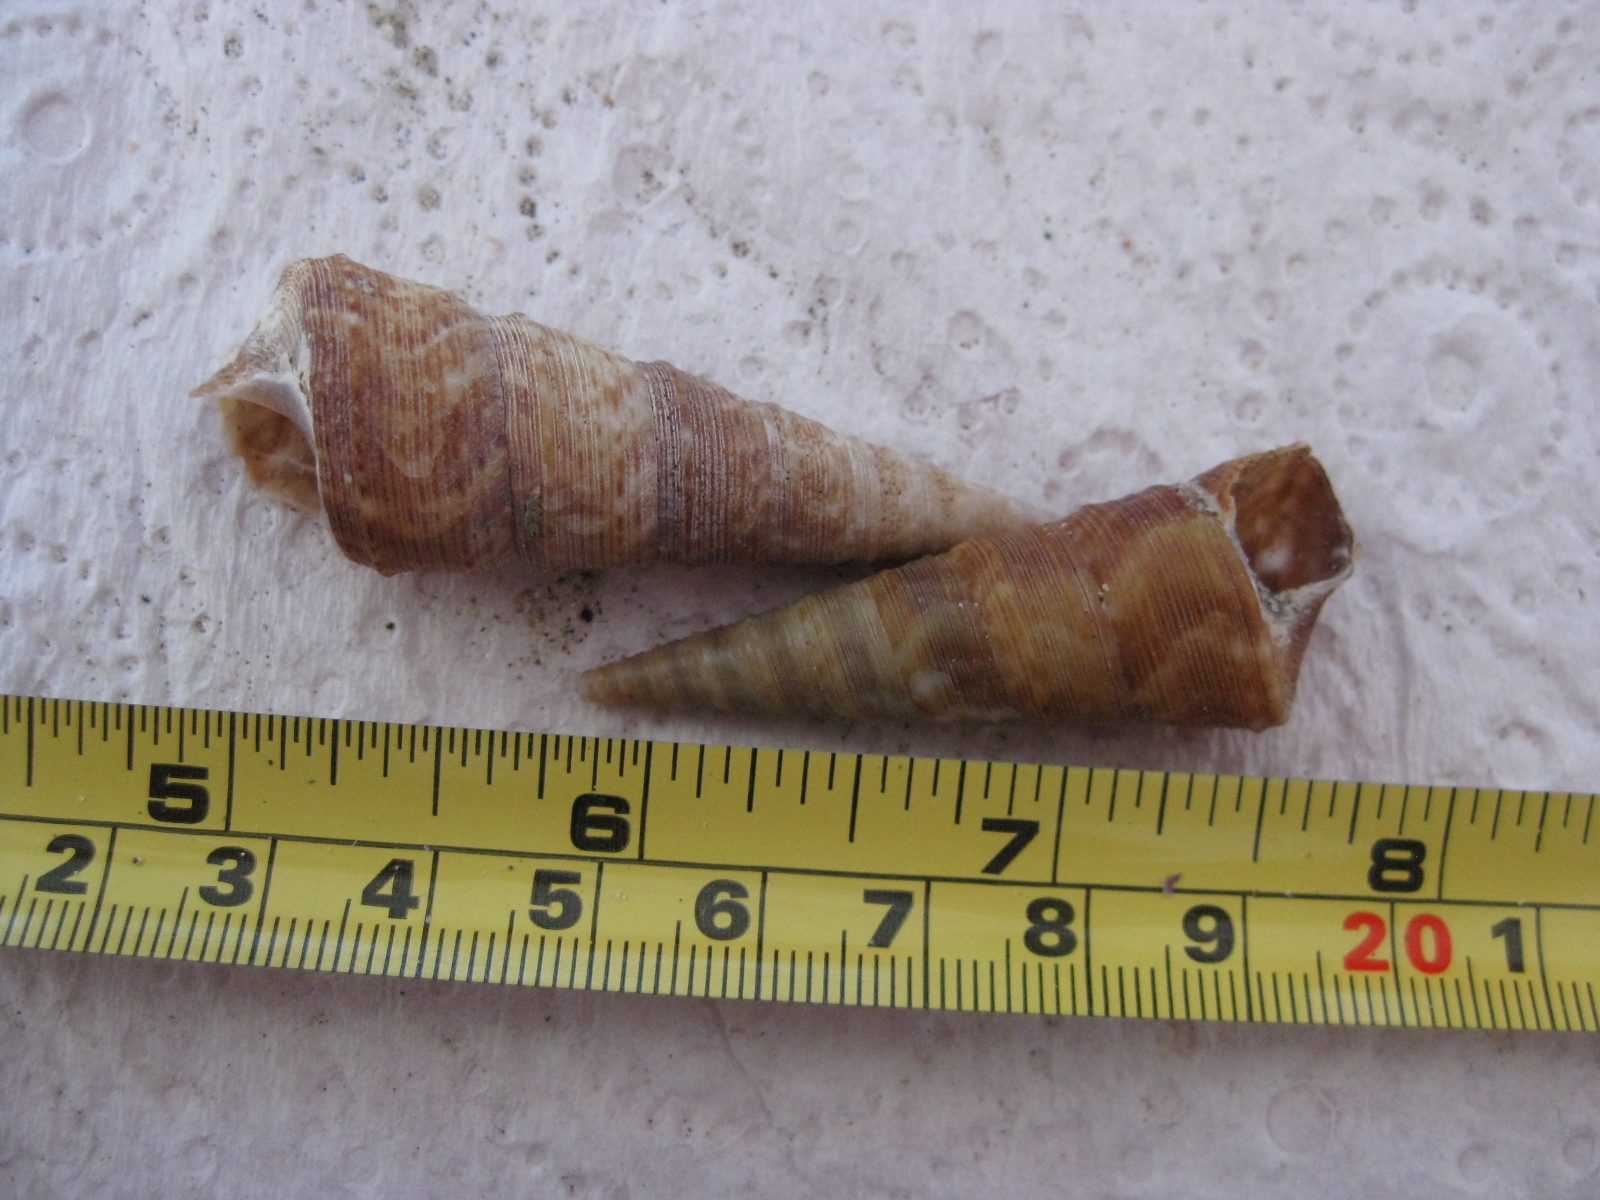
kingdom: Animalia
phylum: Mollusca
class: Gastropoda
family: Turritellidae
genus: Maoricolpus
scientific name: Maoricolpus roseus
